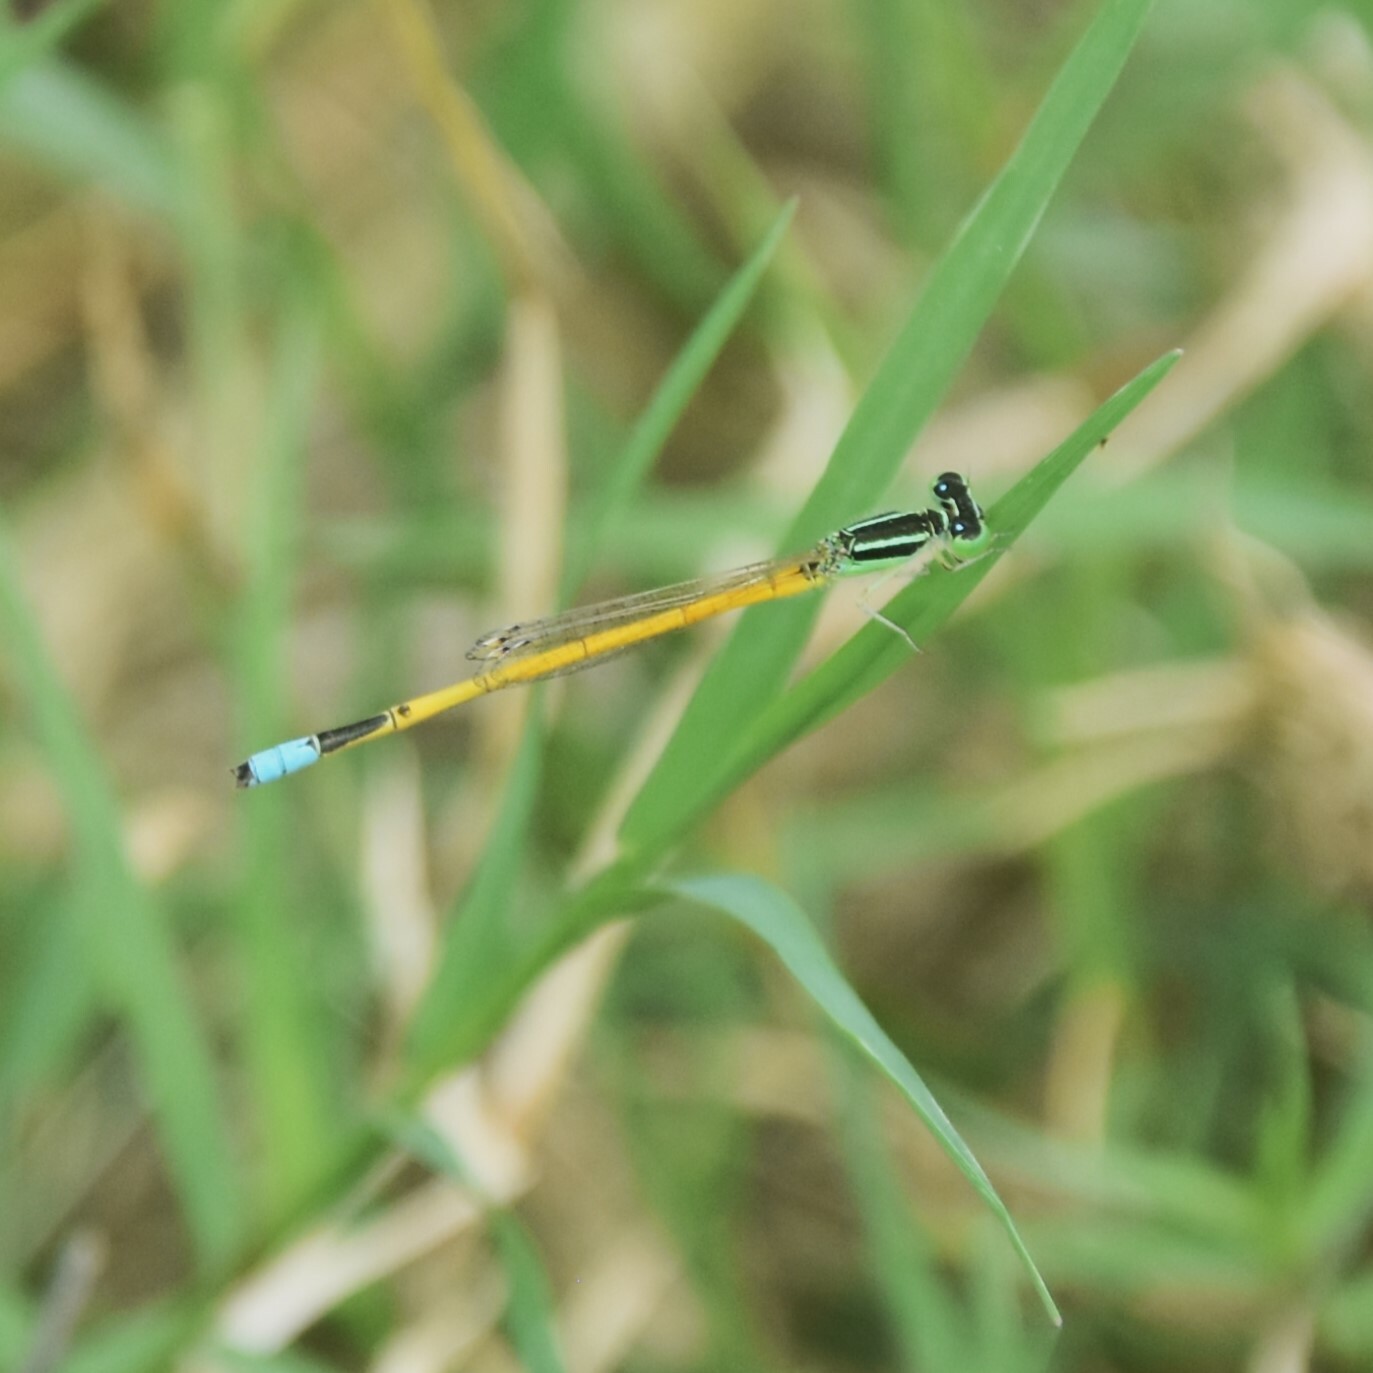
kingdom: Animalia
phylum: Arthropoda
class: Insecta
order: Odonata
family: Coenagrionidae
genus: Ischnura
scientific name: Ischnura rubilio
